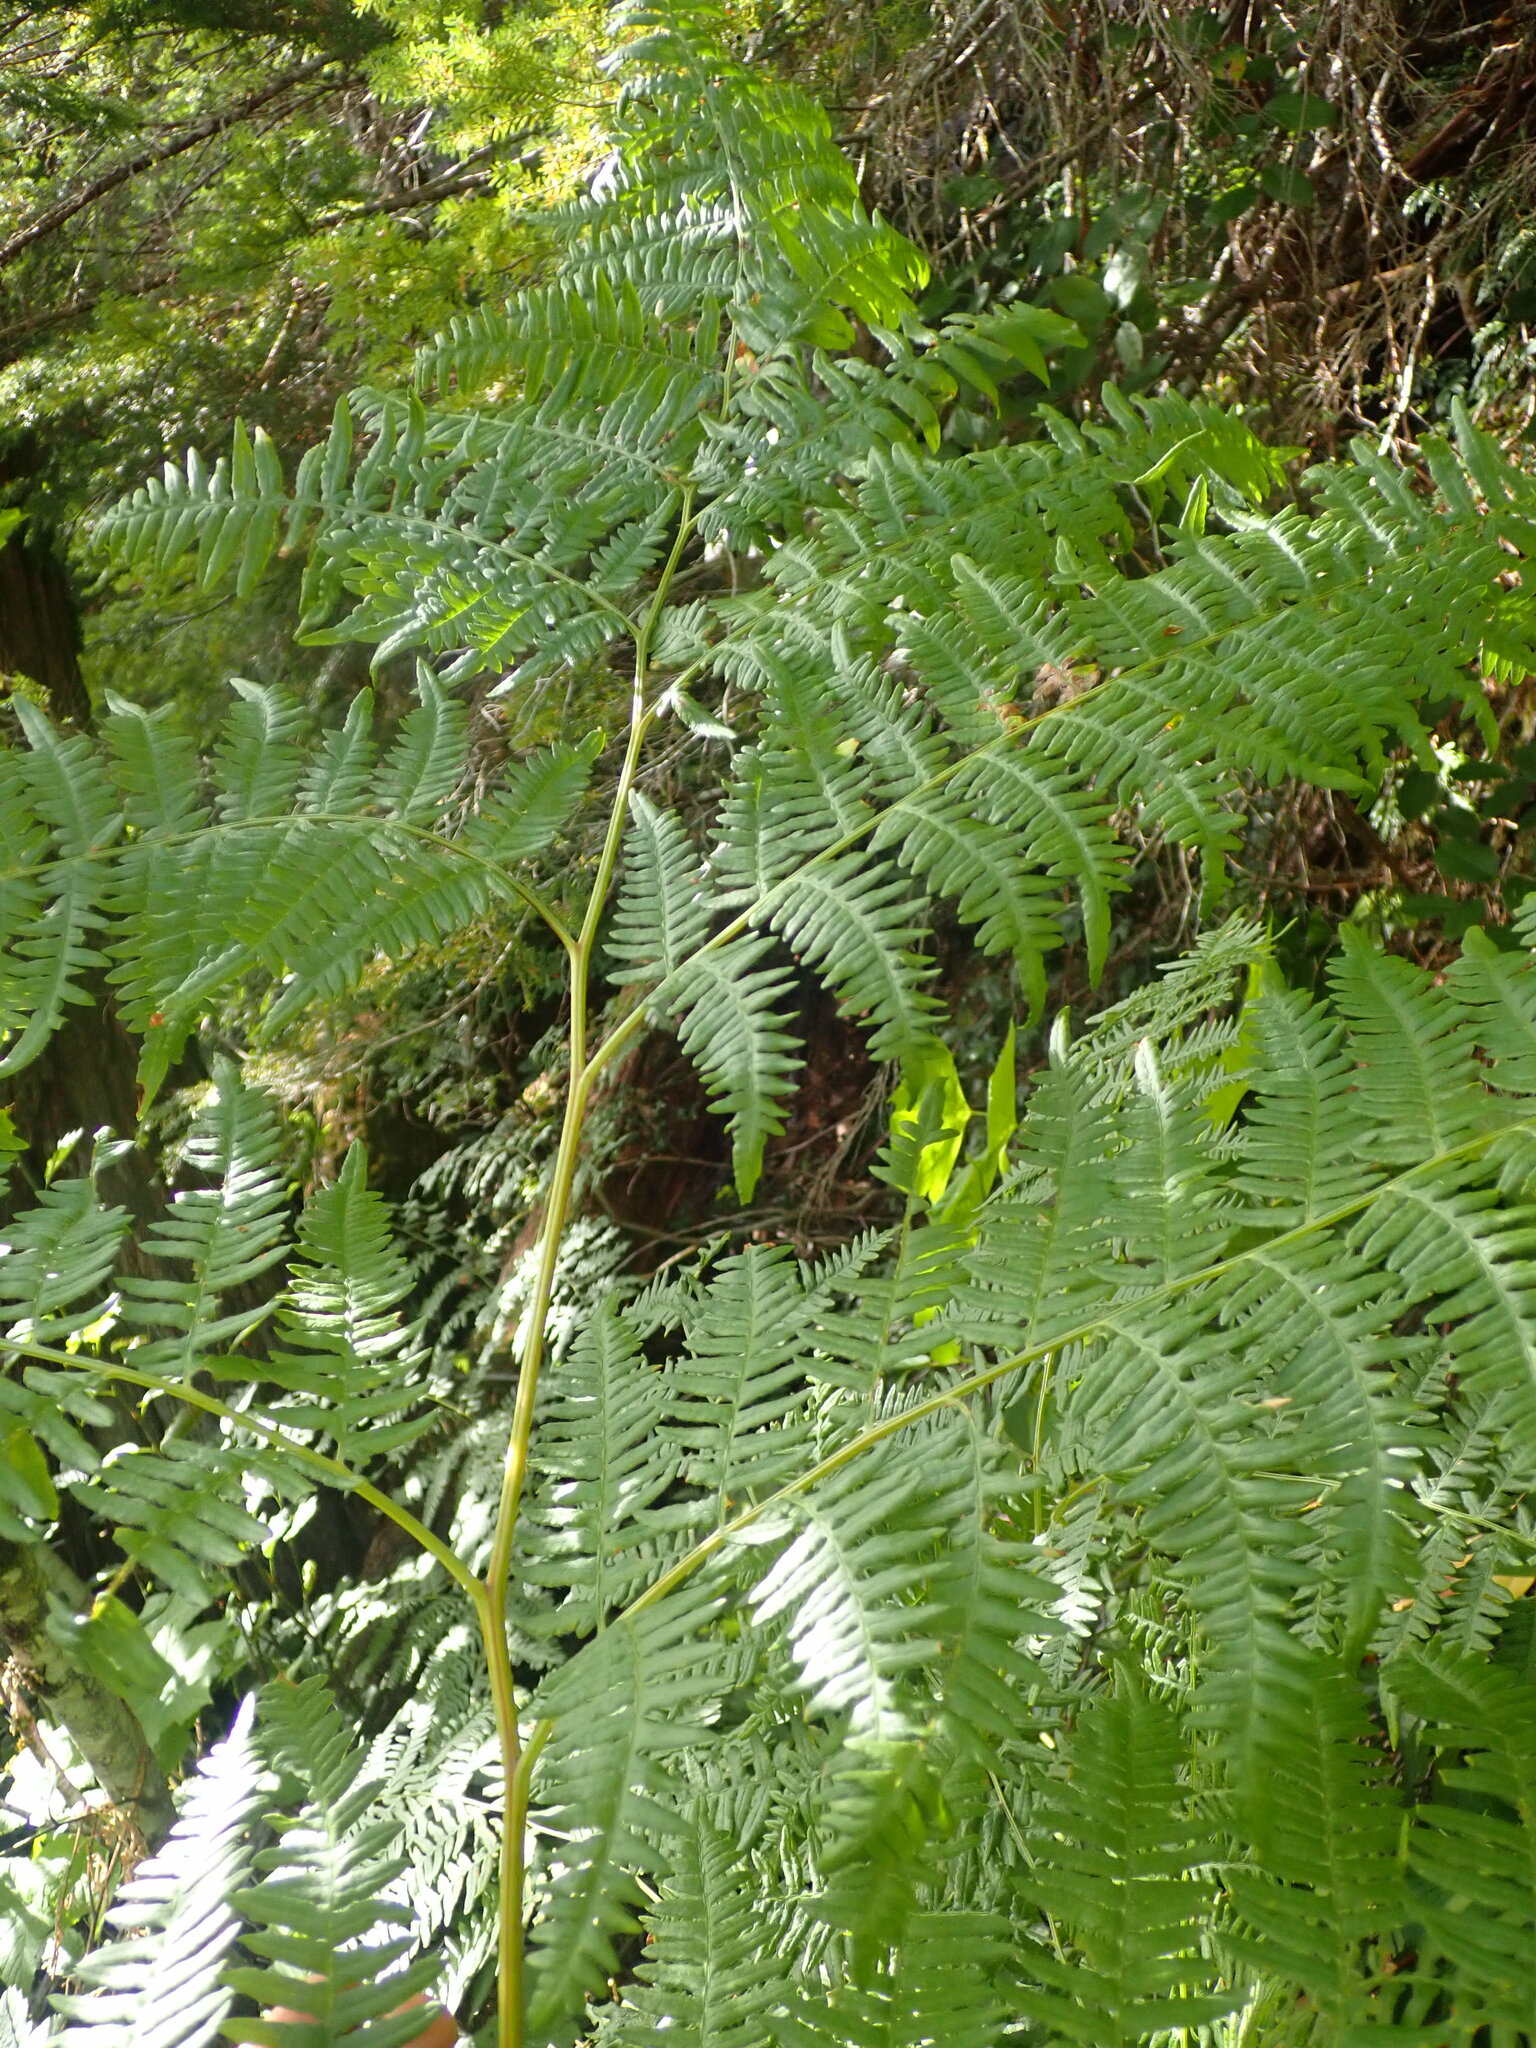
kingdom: Plantae
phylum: Tracheophyta
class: Polypodiopsida
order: Polypodiales
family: Dennstaedtiaceae
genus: Pteridium
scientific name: Pteridium aquilinum
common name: Bracken
